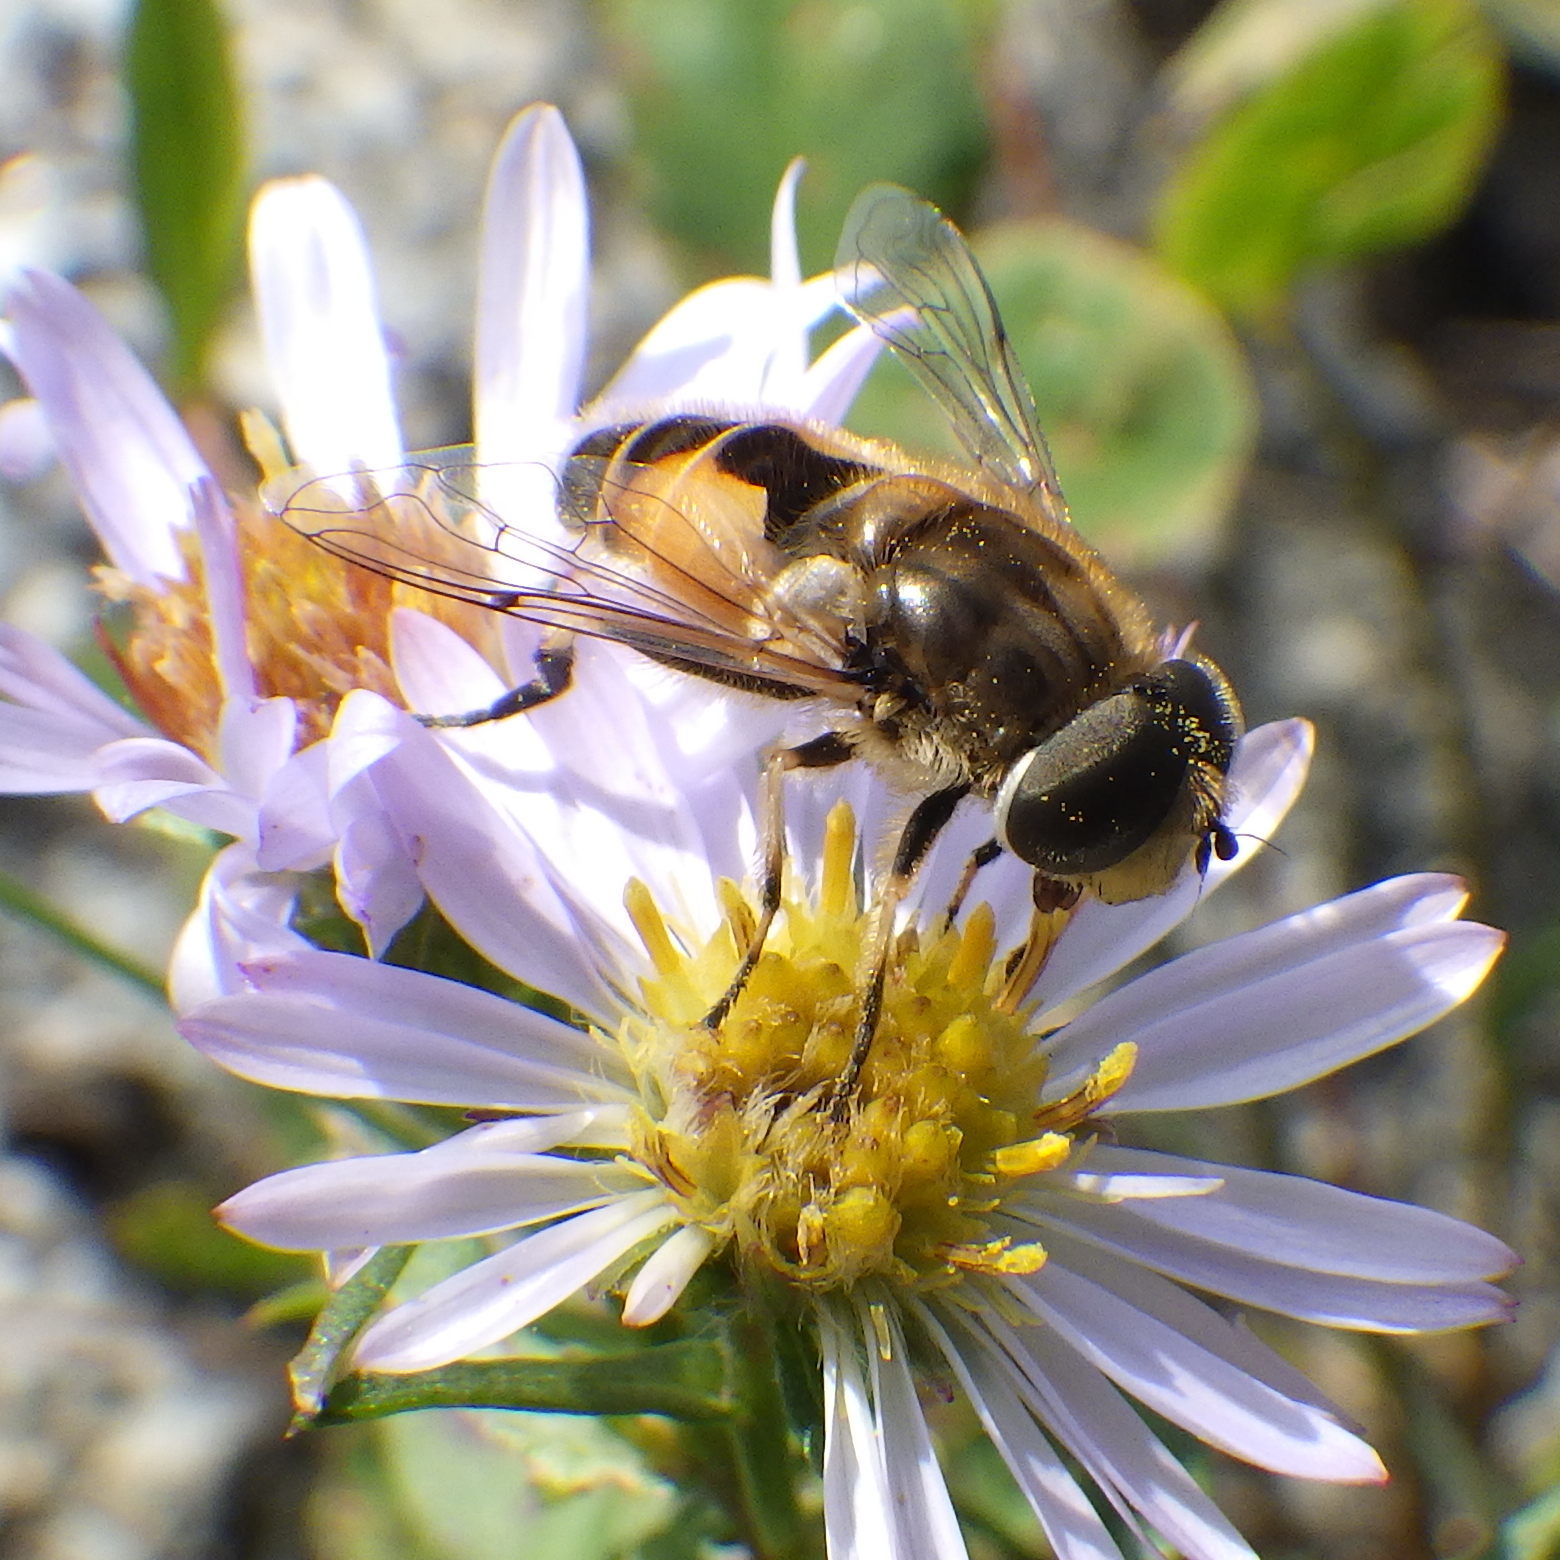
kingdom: Animalia
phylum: Arthropoda
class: Insecta
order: Diptera
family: Syrphidae
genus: Eristalis
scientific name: Eristalis arbustorum
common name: Hover fly
